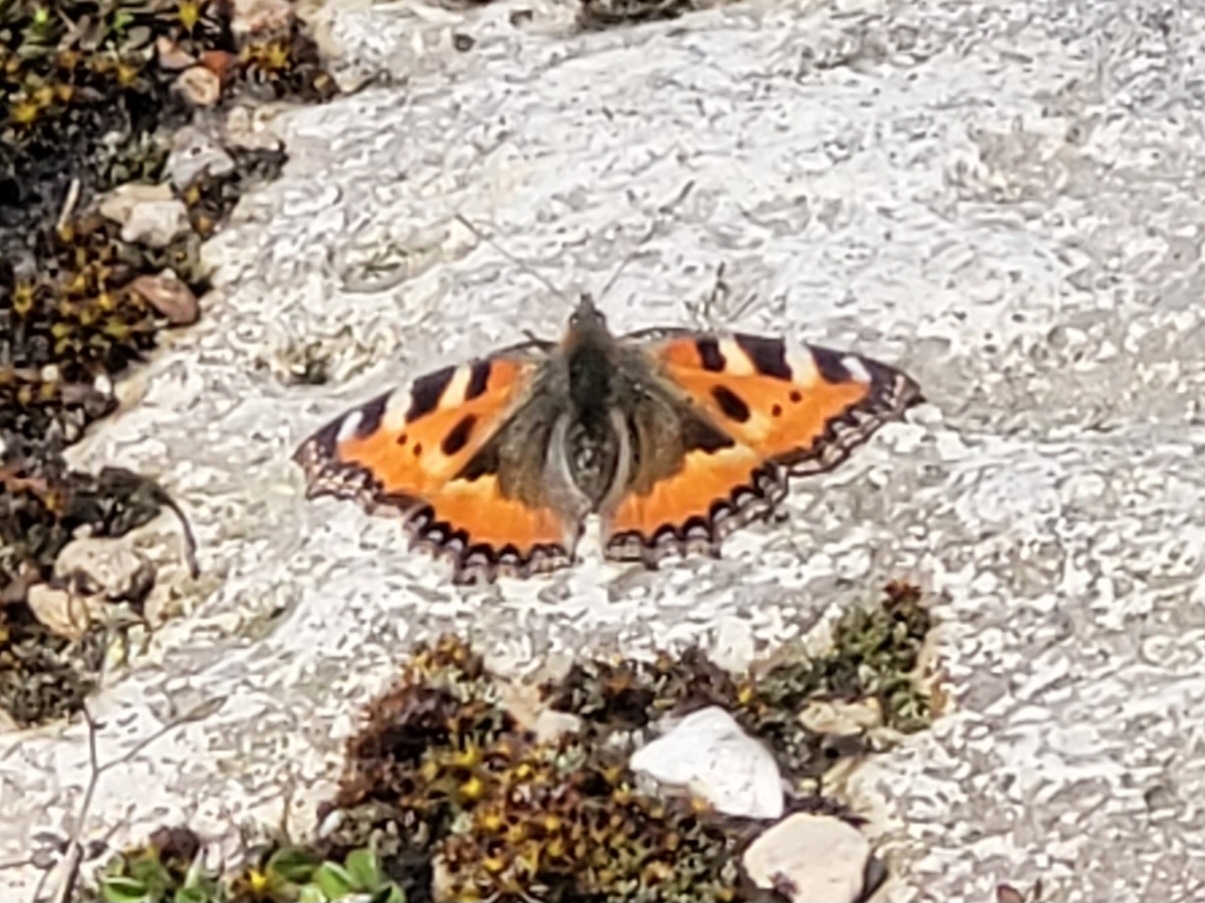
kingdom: Animalia
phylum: Arthropoda
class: Insecta
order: Lepidoptera
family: Nymphalidae
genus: Aglais
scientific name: Aglais urticae
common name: Small tortoiseshell
